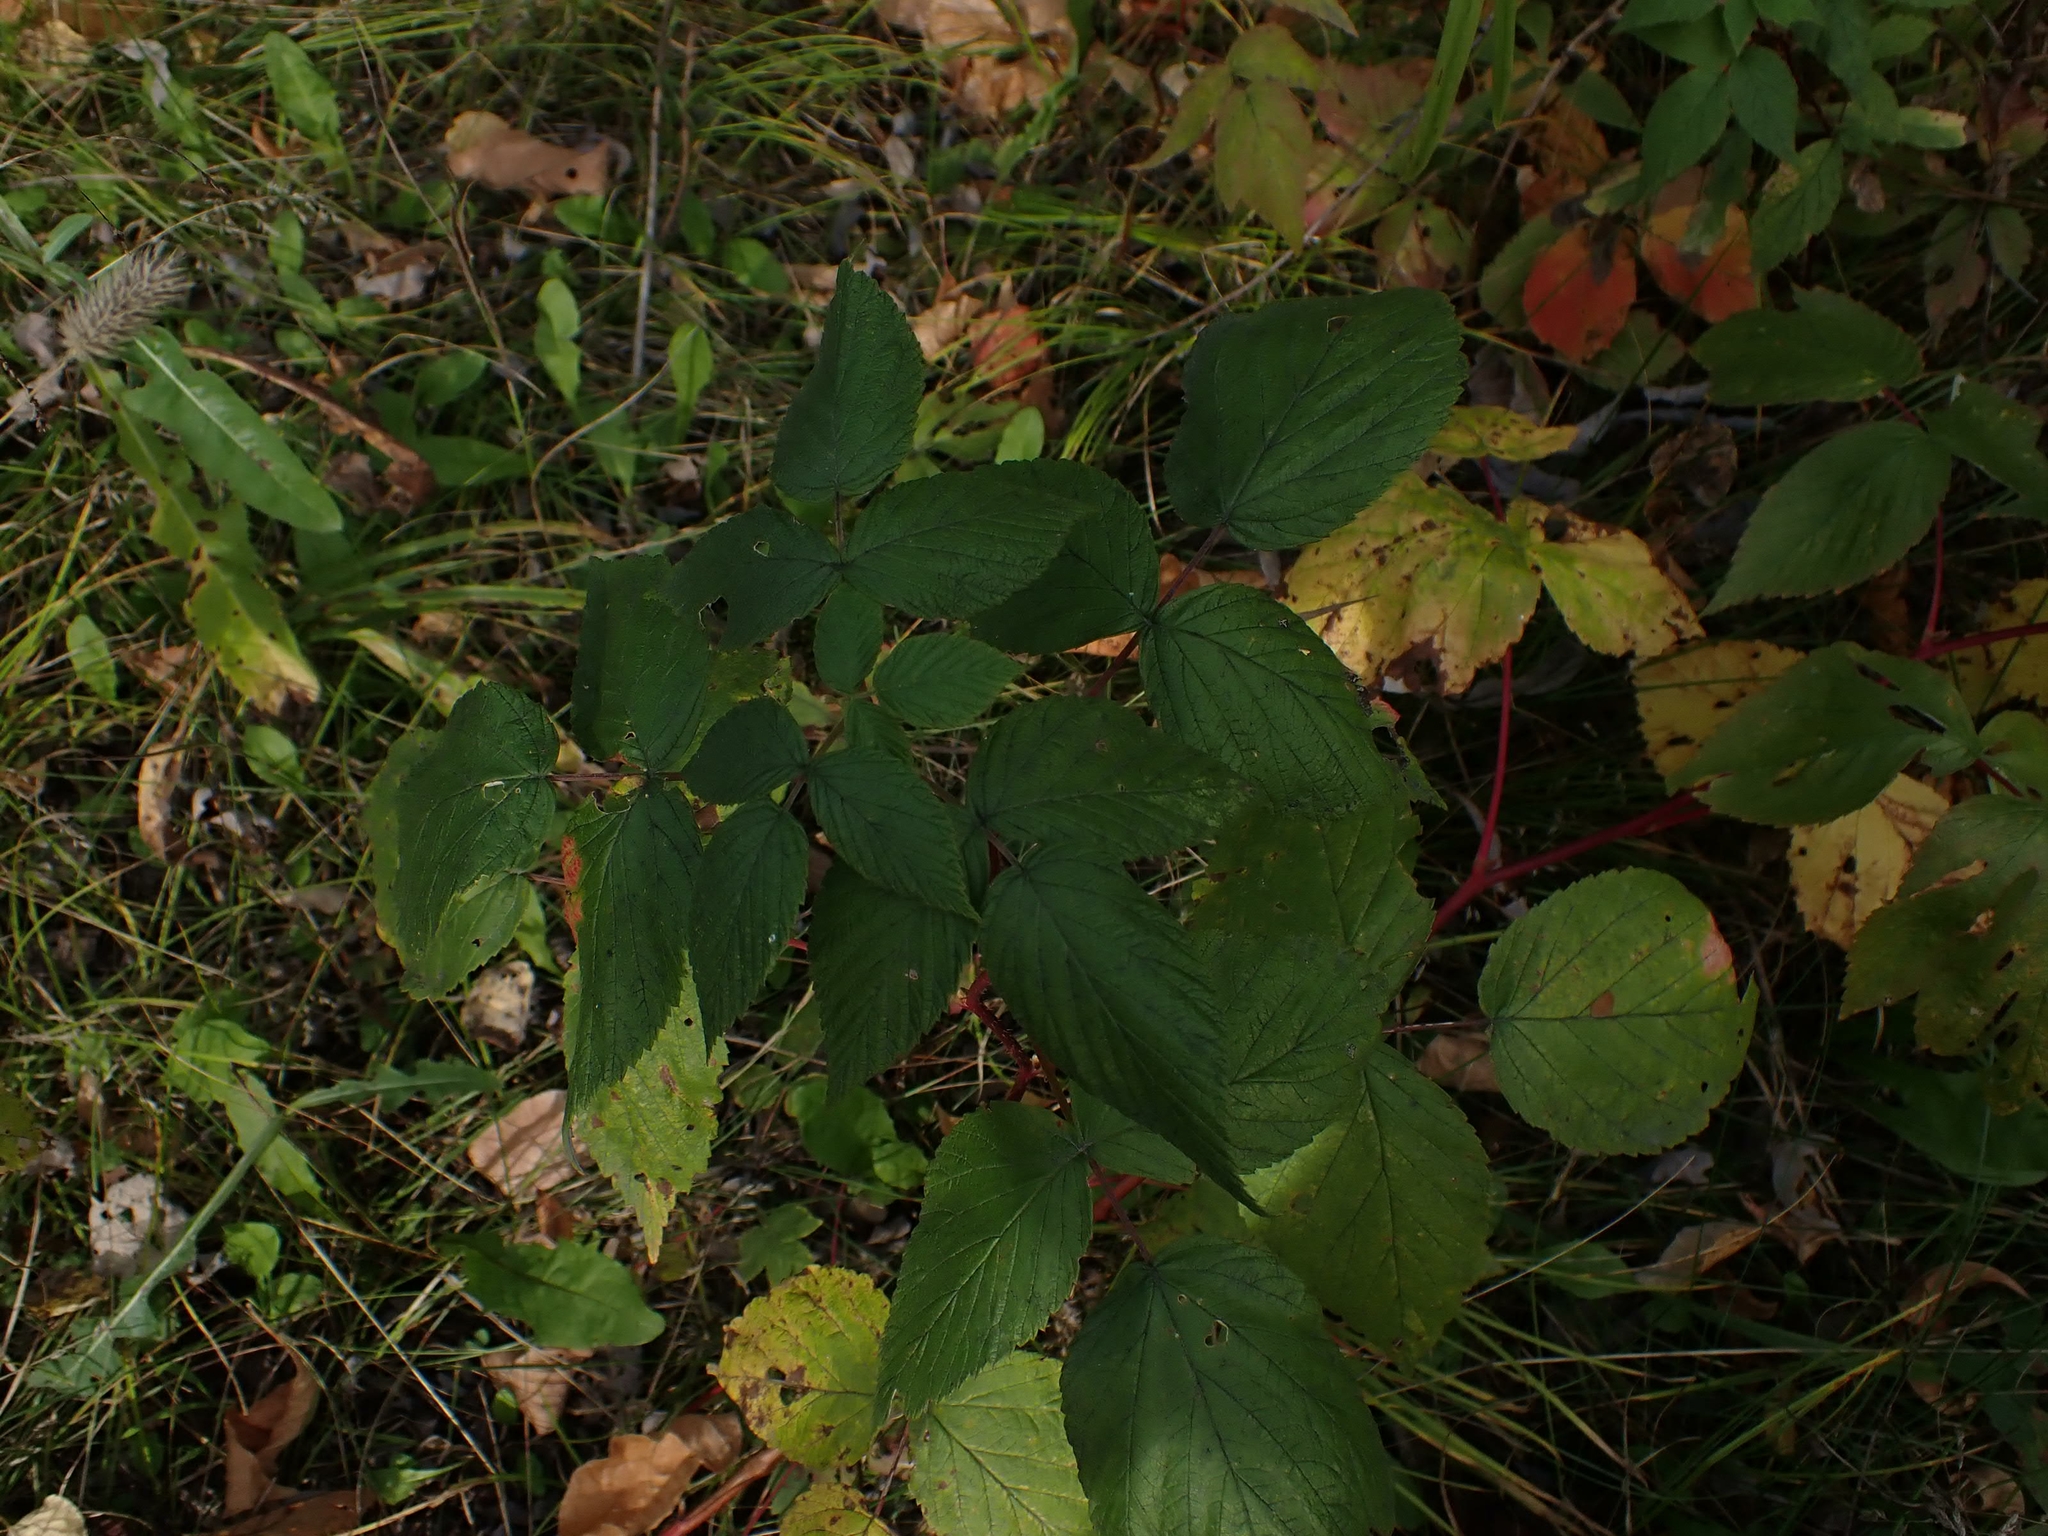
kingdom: Plantae
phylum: Tracheophyta
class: Magnoliopsida
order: Rosales
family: Rosaceae
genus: Rubus
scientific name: Rubus idaeus
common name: Raspberry
